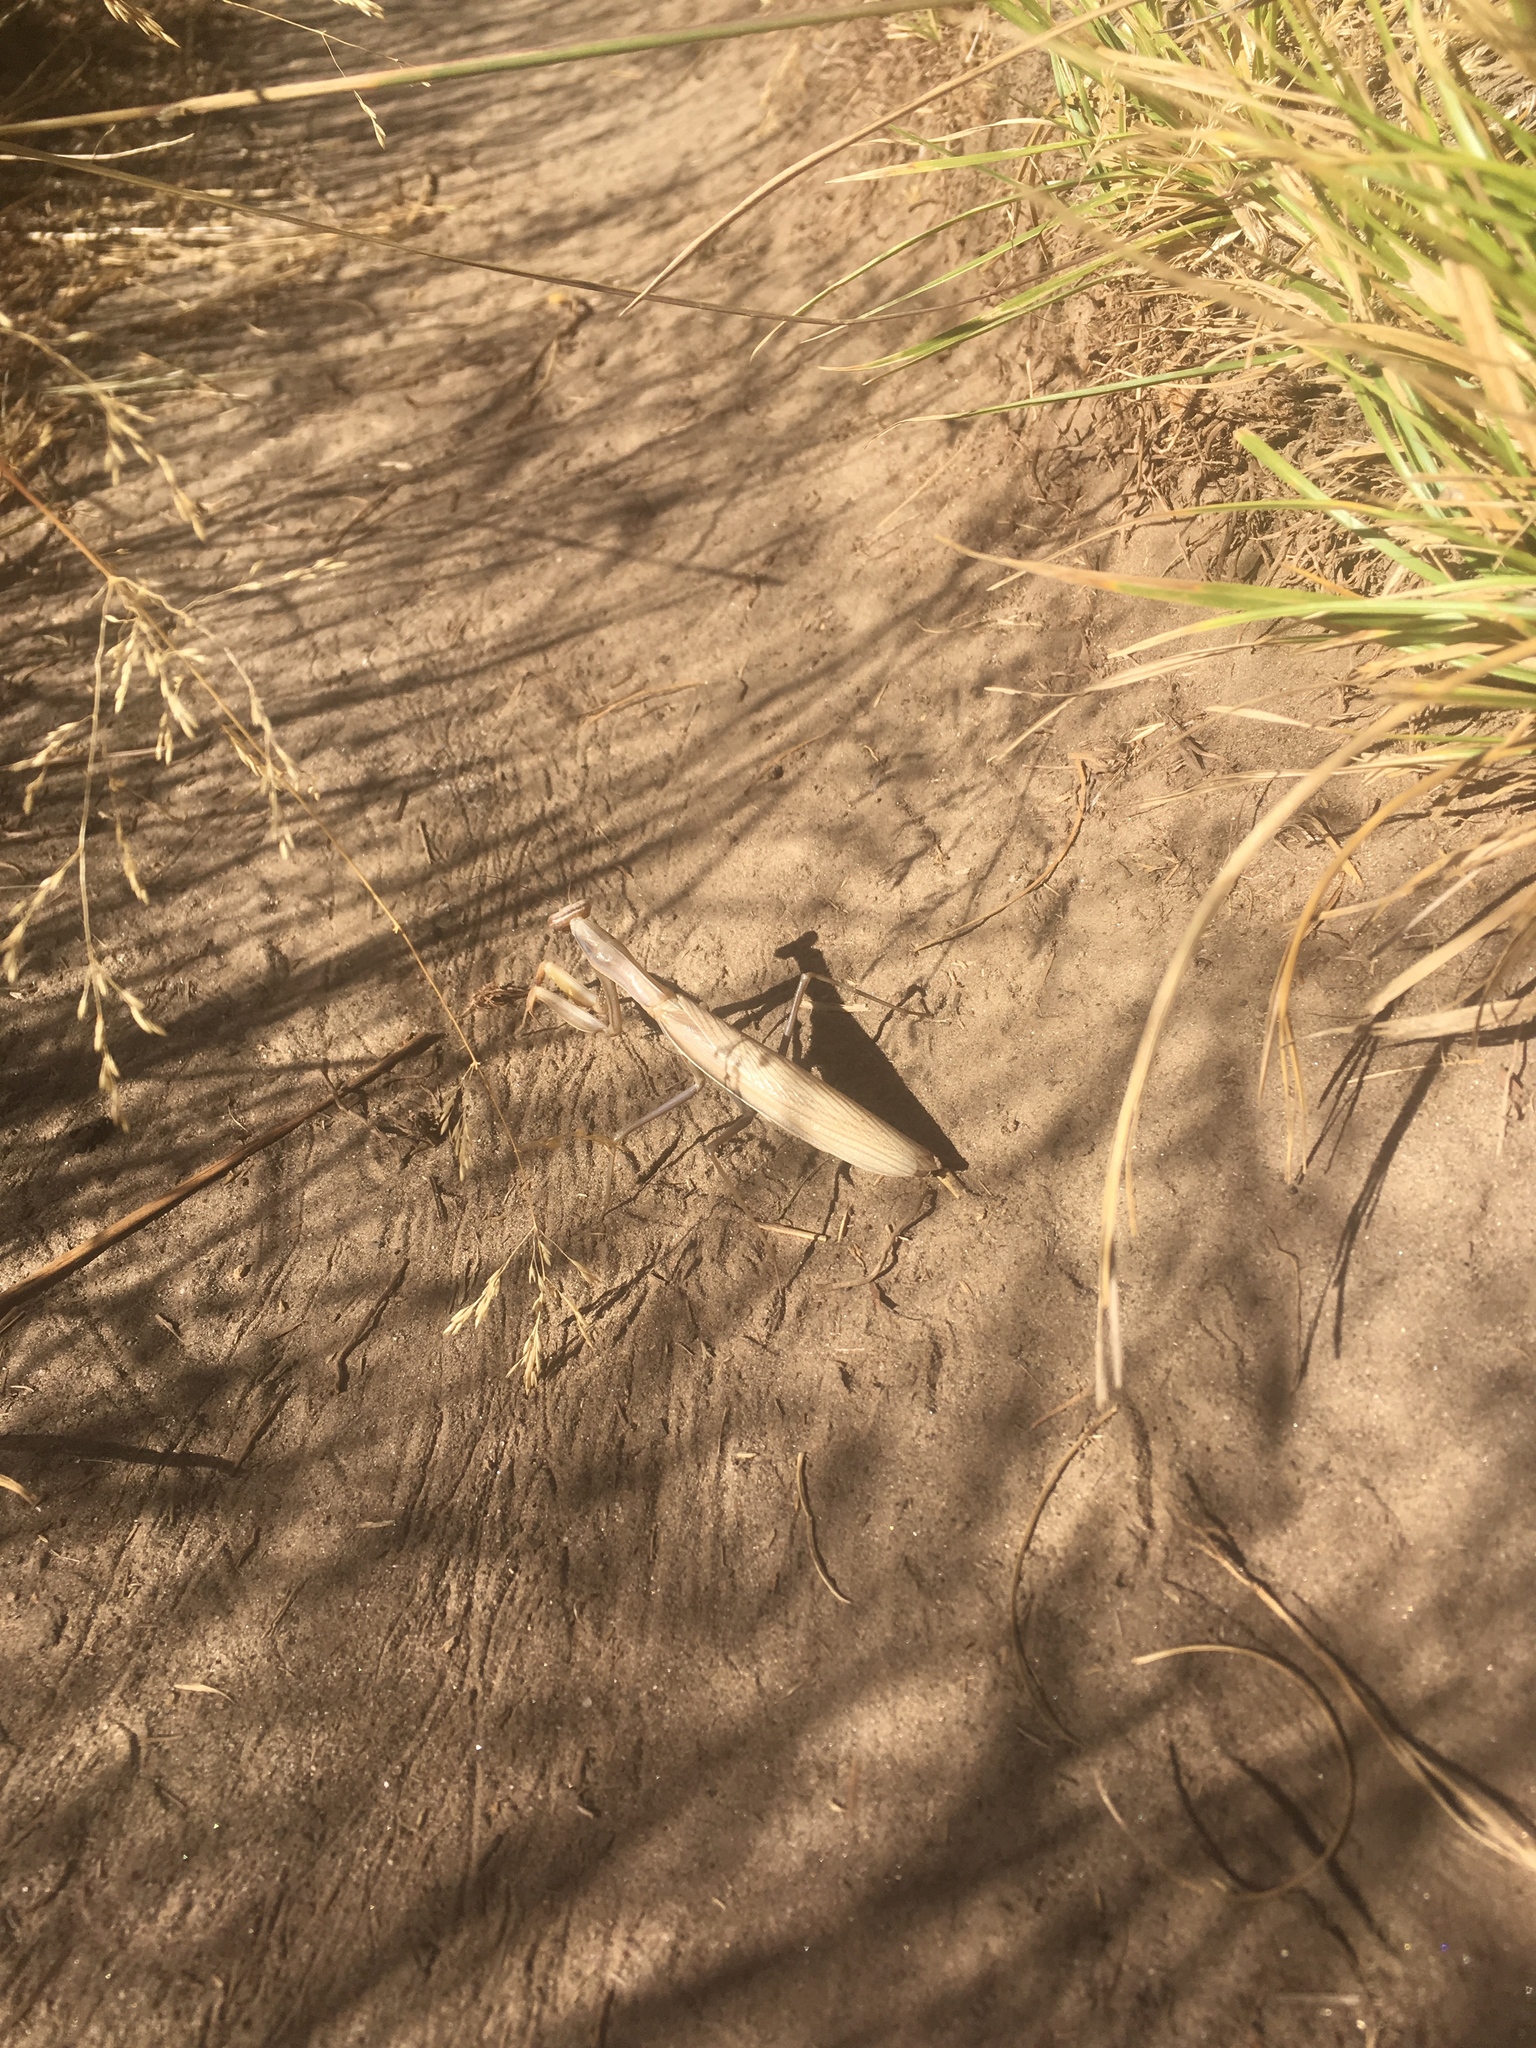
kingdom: Animalia
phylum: Arthropoda
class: Insecta
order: Mantodea
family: Mantidae
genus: Mantis
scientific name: Mantis religiosa
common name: Praying mantis
